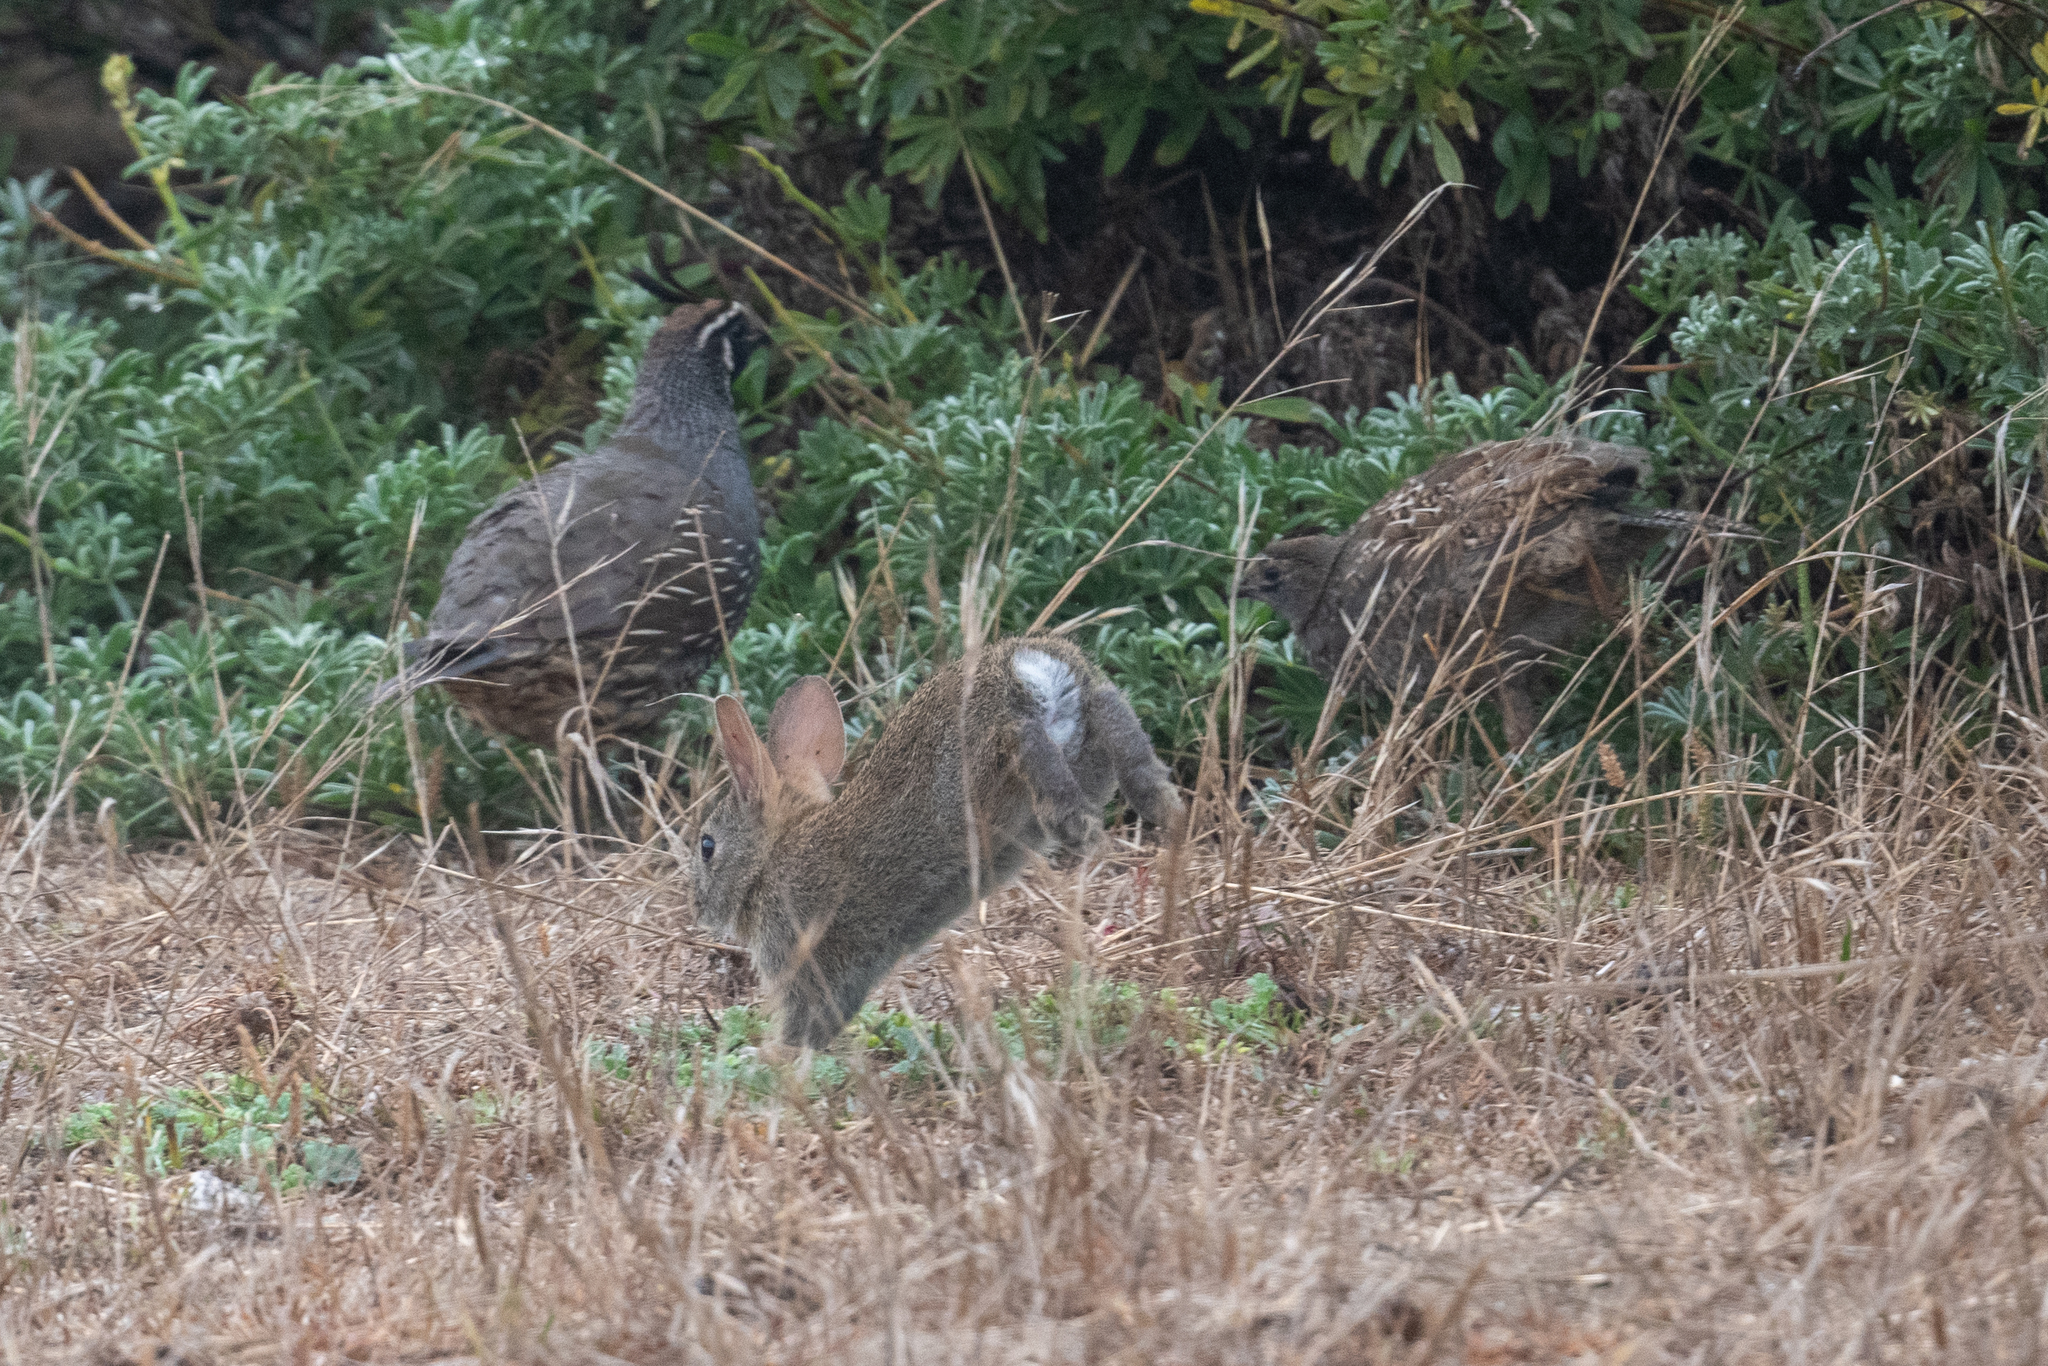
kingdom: Animalia
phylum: Chordata
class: Mammalia
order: Lagomorpha
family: Leporidae
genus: Sylvilagus
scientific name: Sylvilagus bachmani
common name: Brush rabbit
